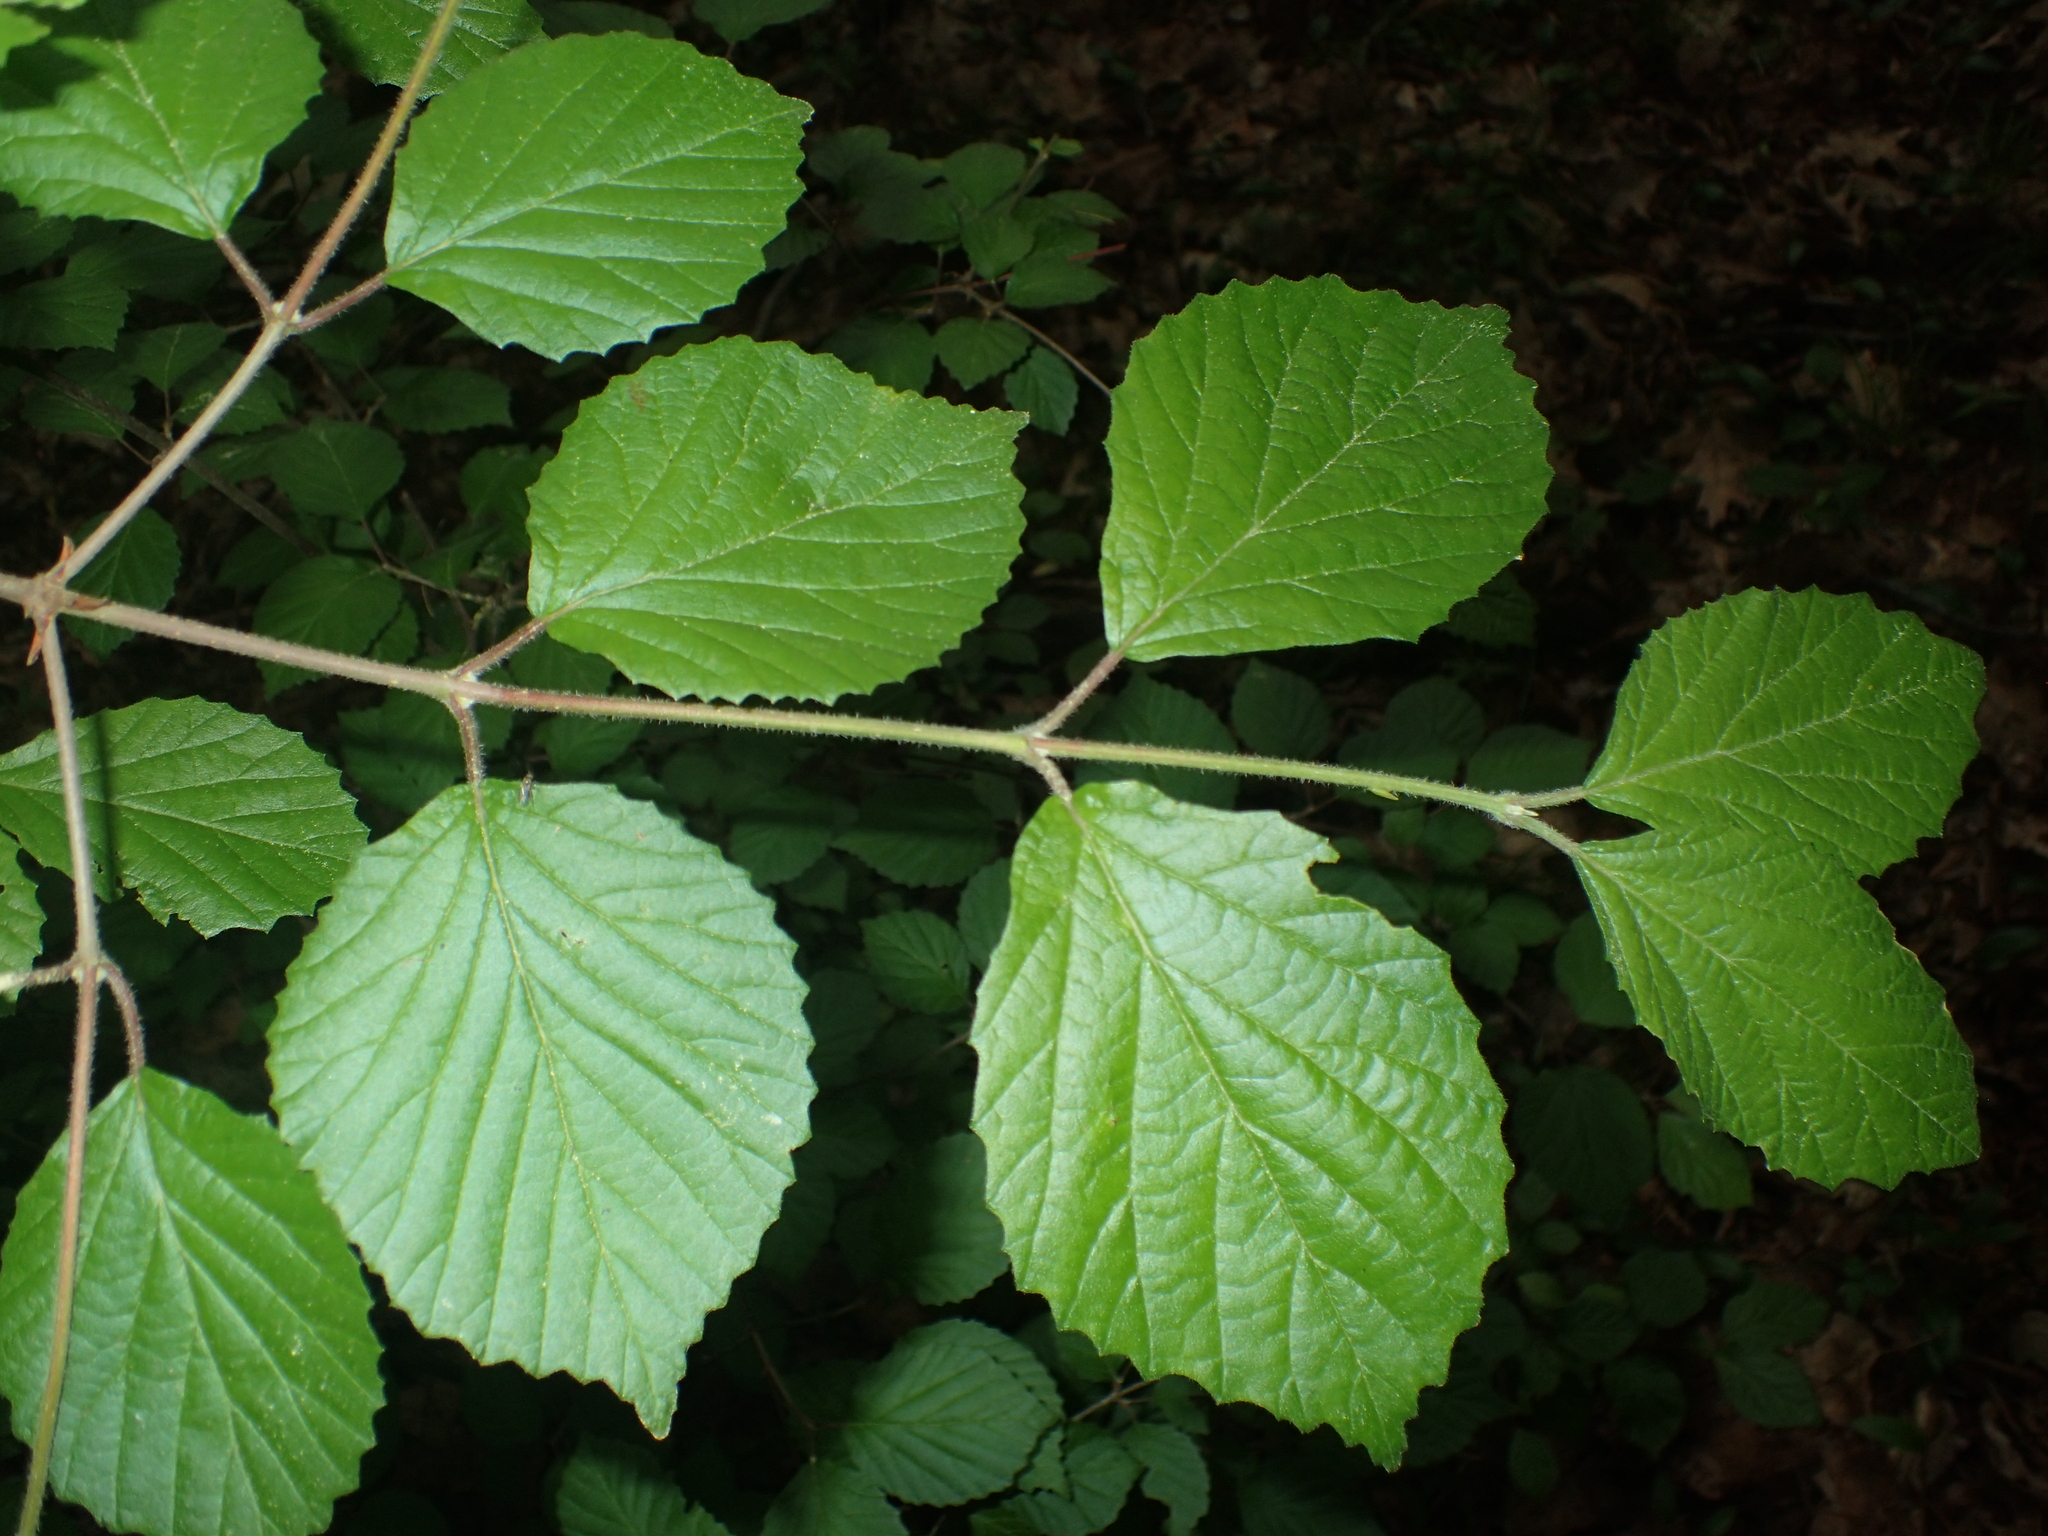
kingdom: Plantae
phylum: Tracheophyta
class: Magnoliopsida
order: Dipsacales
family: Viburnaceae
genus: Viburnum
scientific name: Viburnum dilatatum
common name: Linden arrowwood
